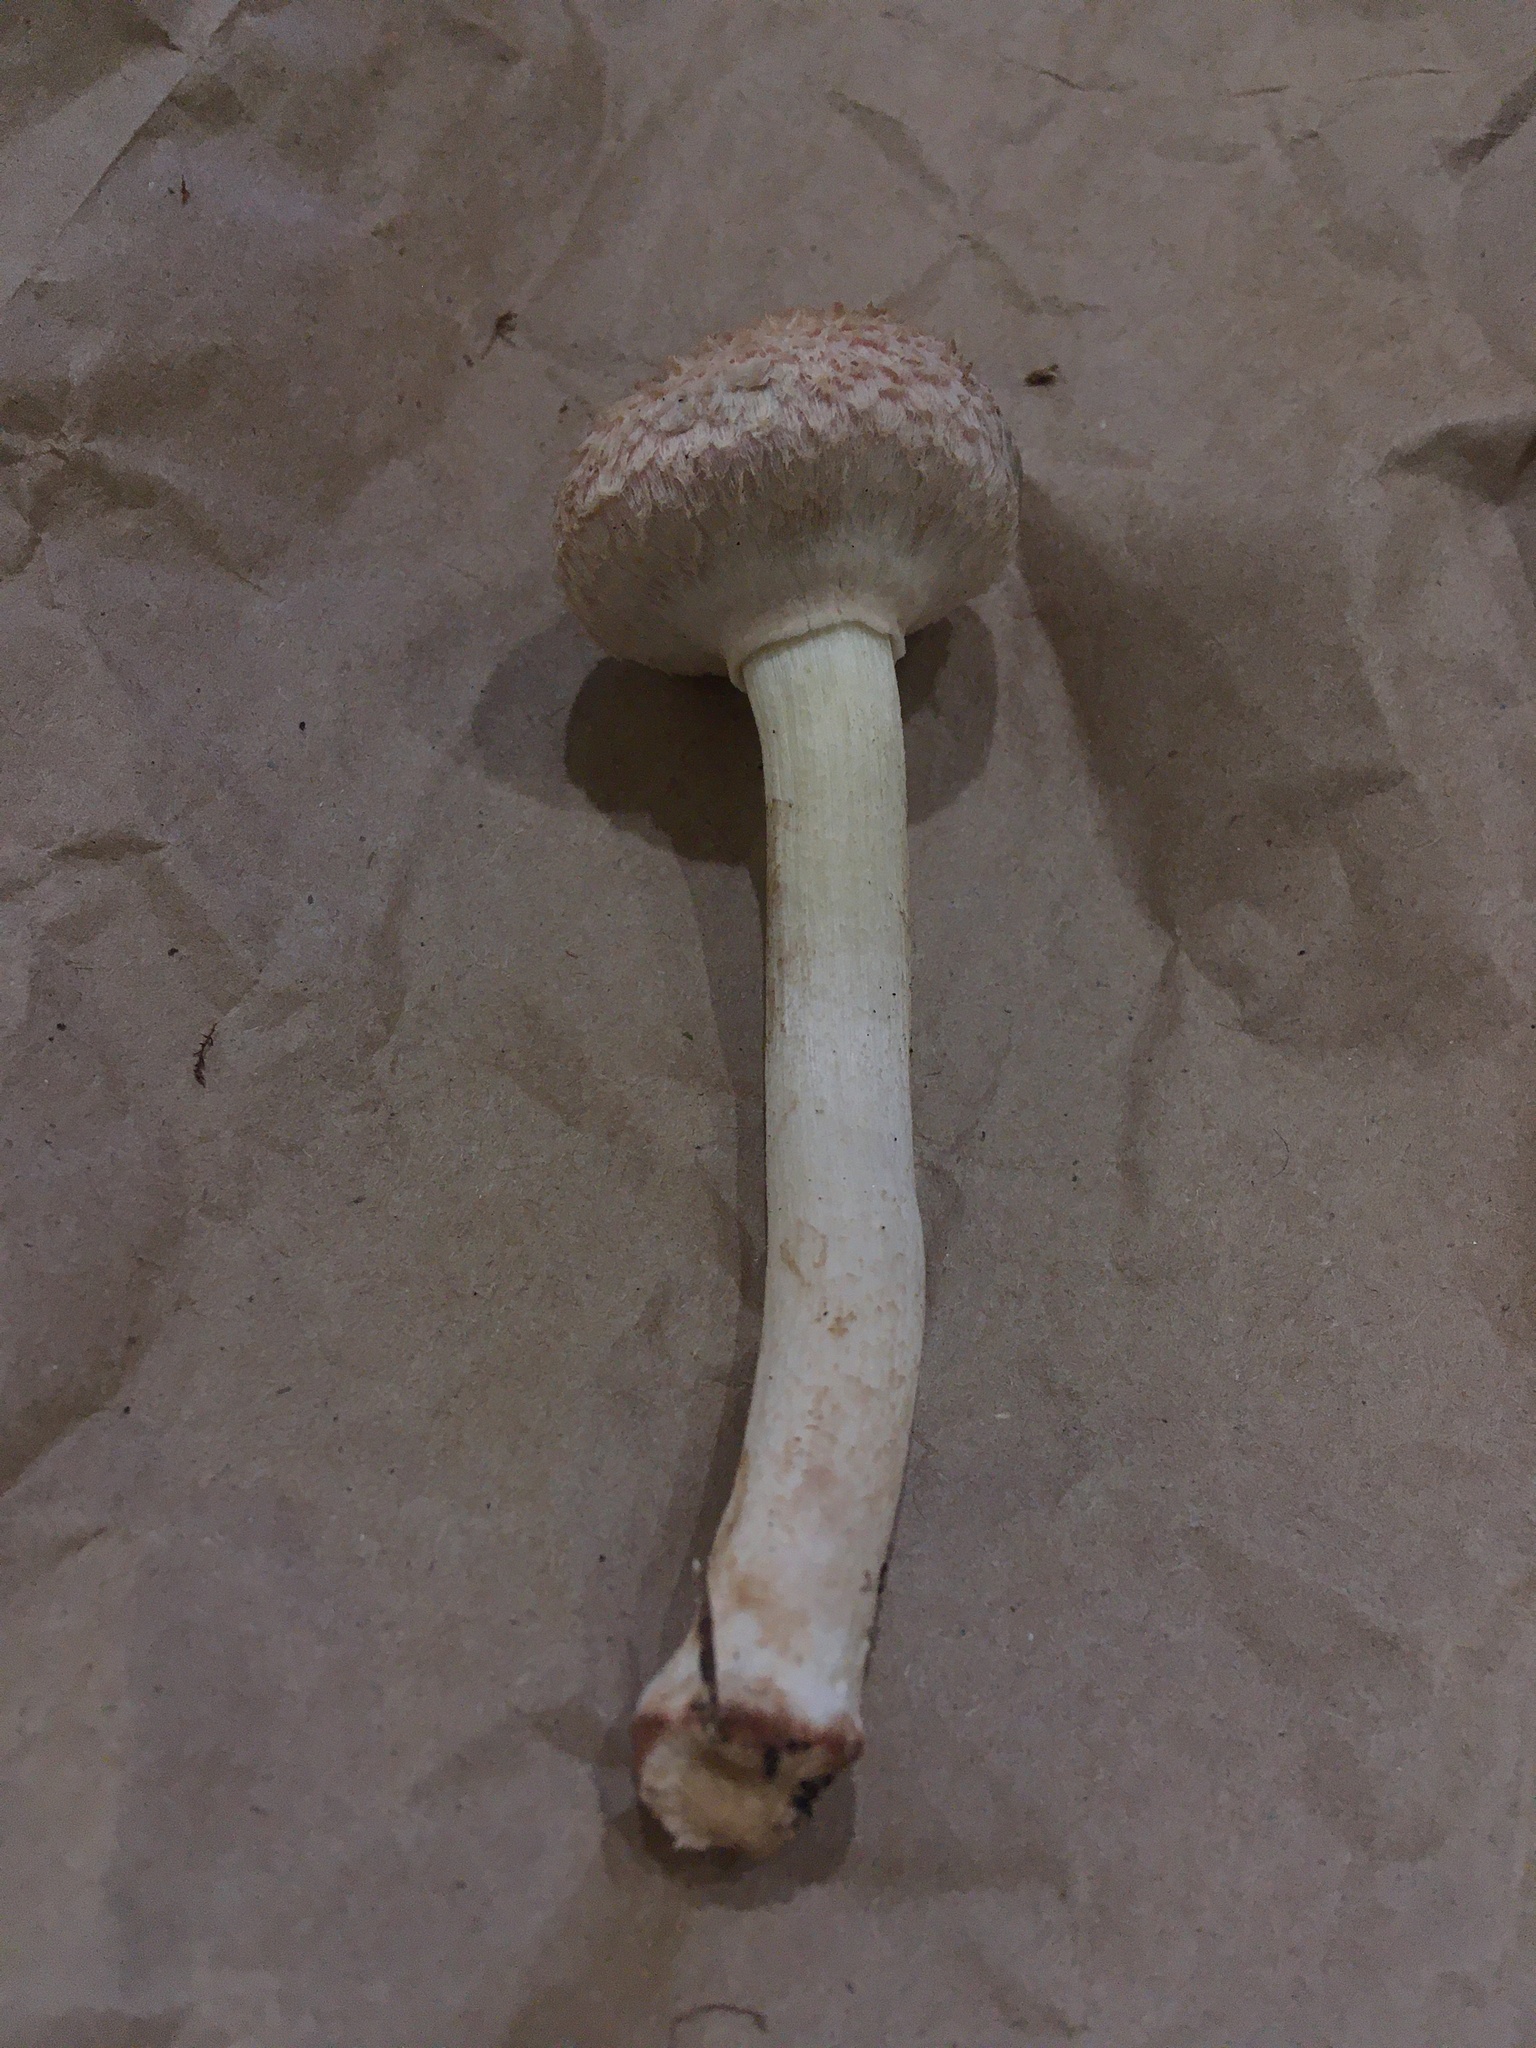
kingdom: Fungi
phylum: Basidiomycota
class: Agaricomycetes
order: Boletales
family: Boletaceae
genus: Boletellus
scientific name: Boletellus ananas
